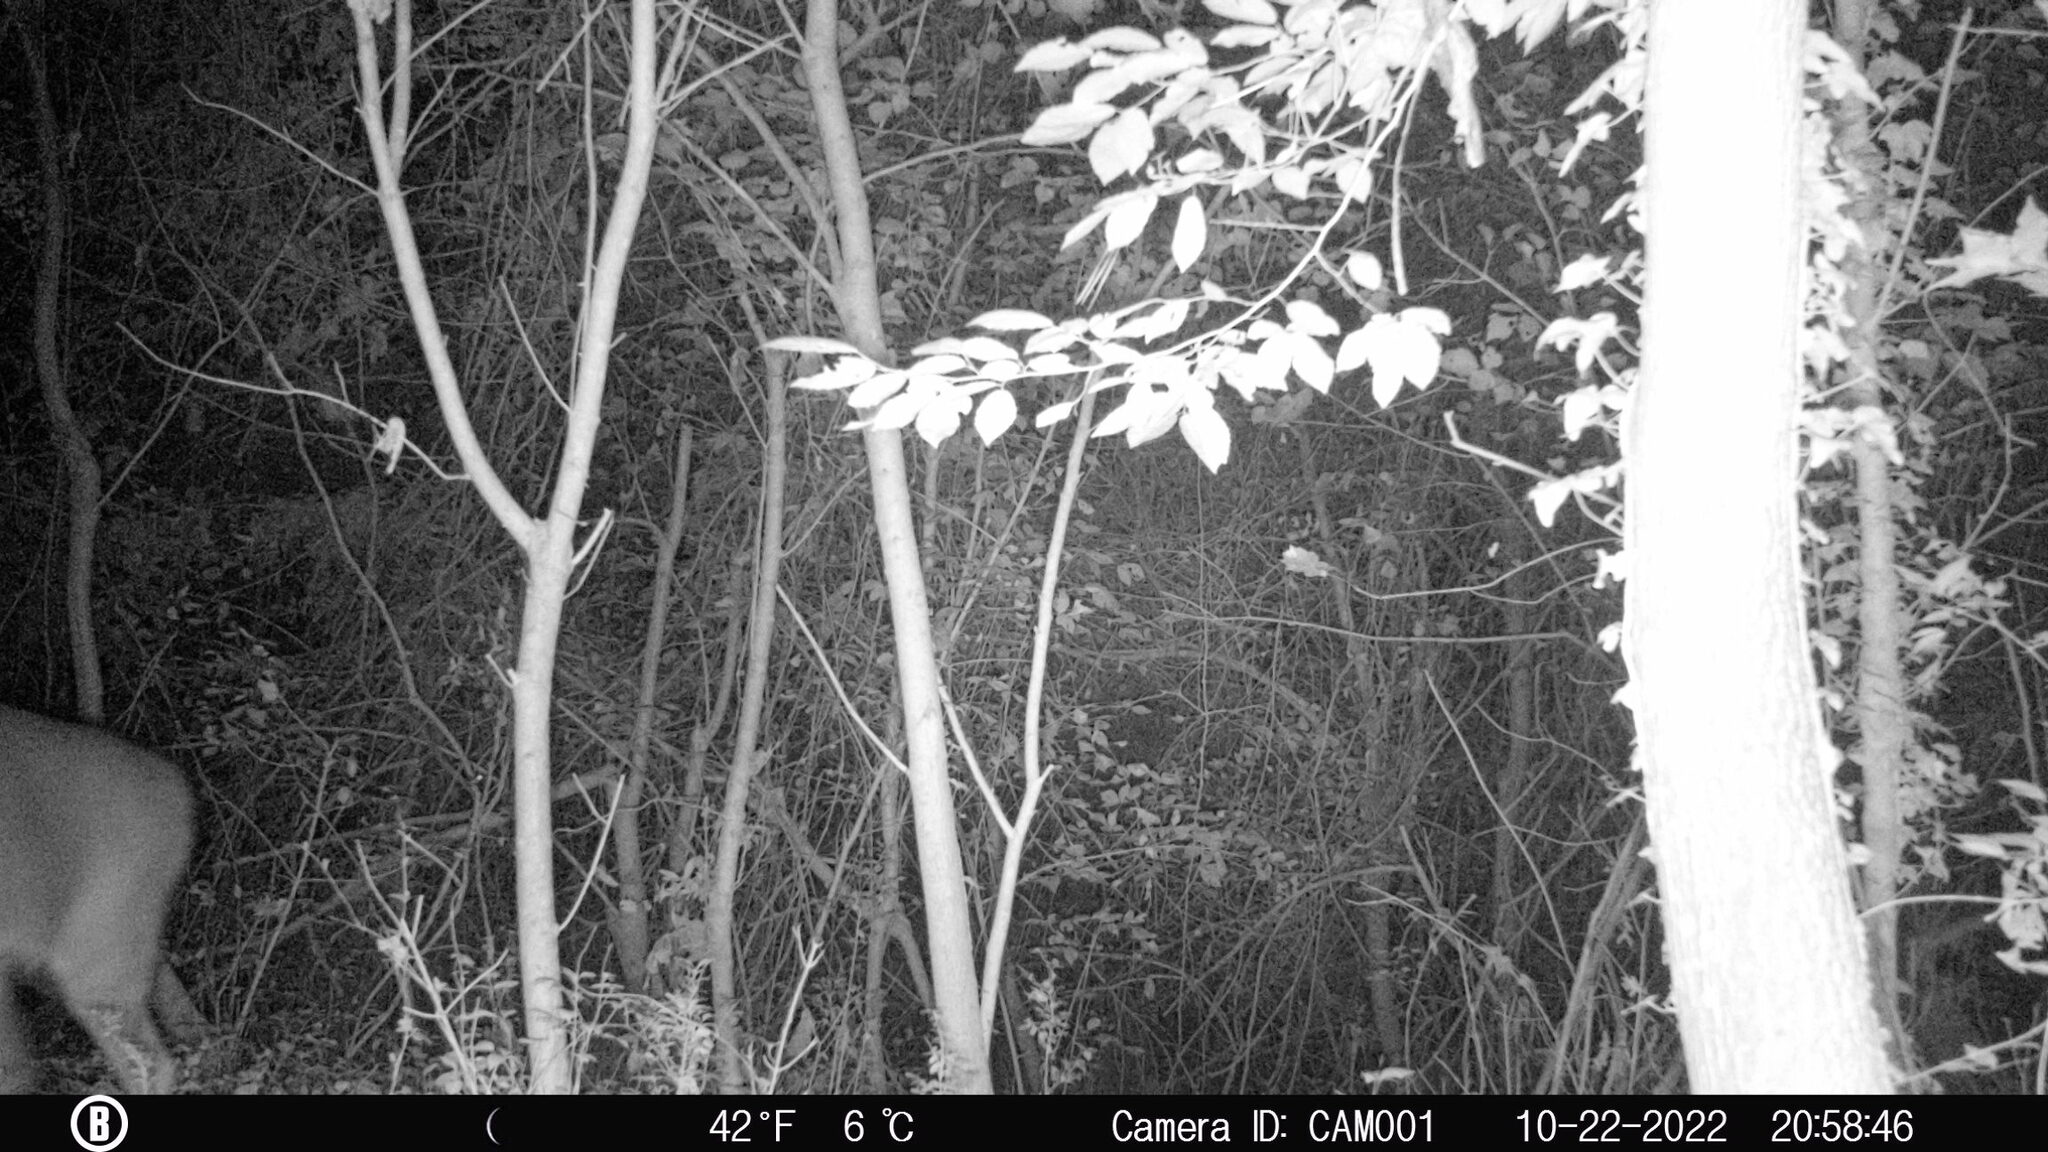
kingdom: Animalia
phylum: Chordata
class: Mammalia
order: Artiodactyla
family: Cervidae
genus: Odocoileus
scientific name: Odocoileus virginianus
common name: White-tailed deer
